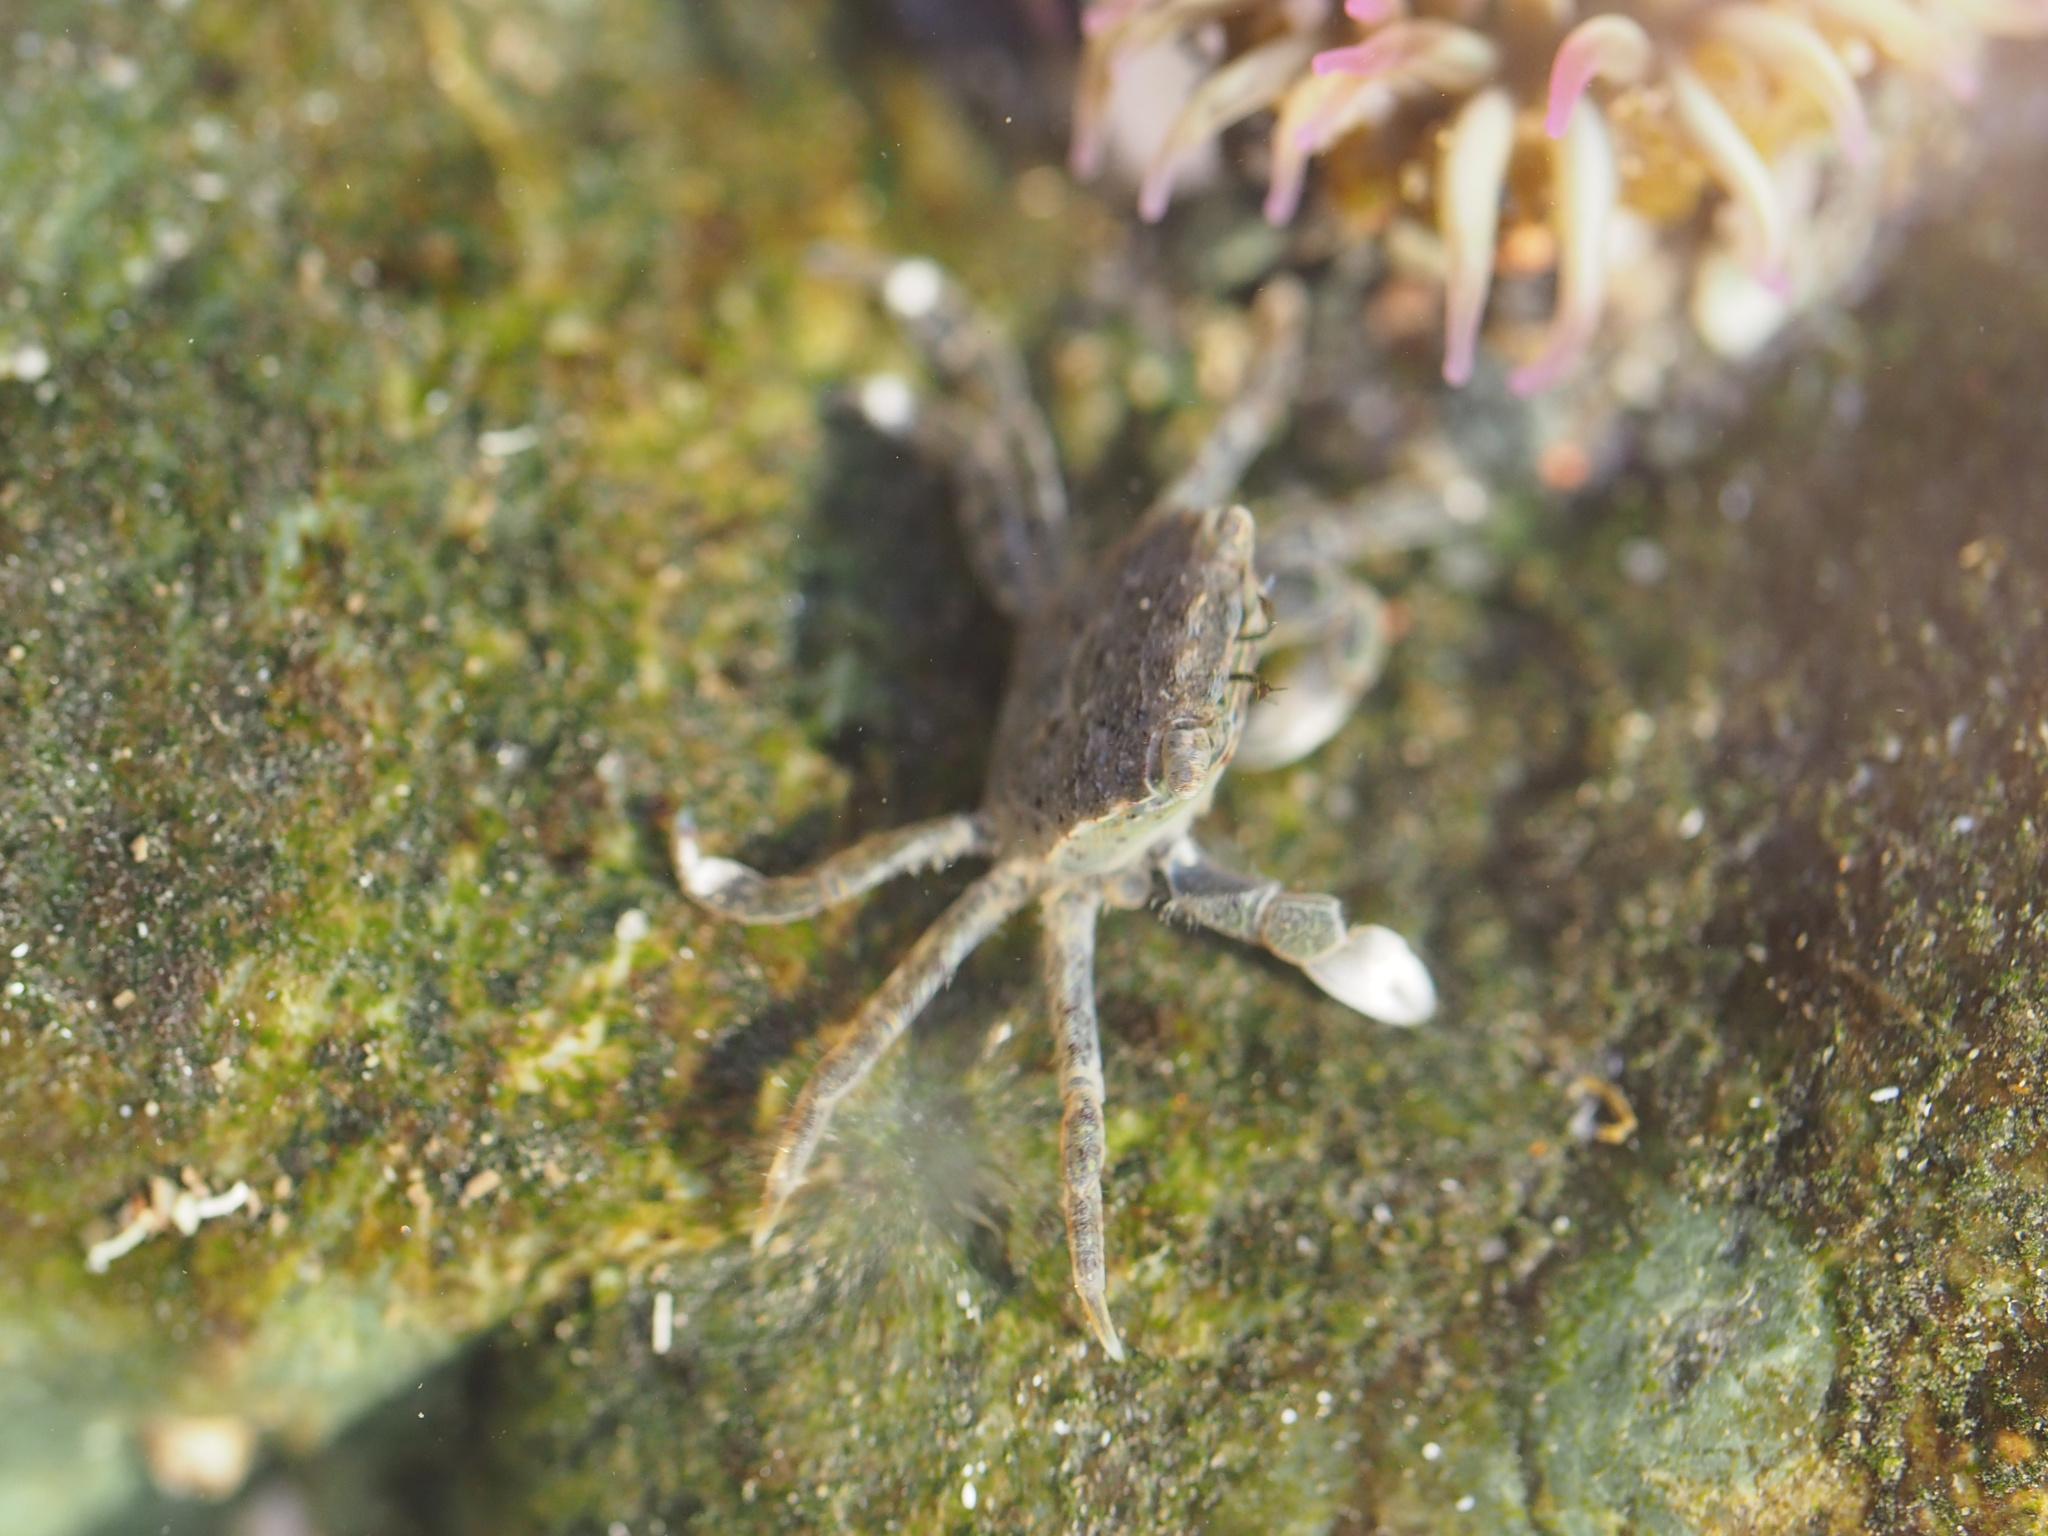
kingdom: Animalia
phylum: Arthropoda
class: Malacostraca
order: Decapoda
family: Varunidae
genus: Hemigrapsus
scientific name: Hemigrapsus oregonensis
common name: Yellow shore crab
